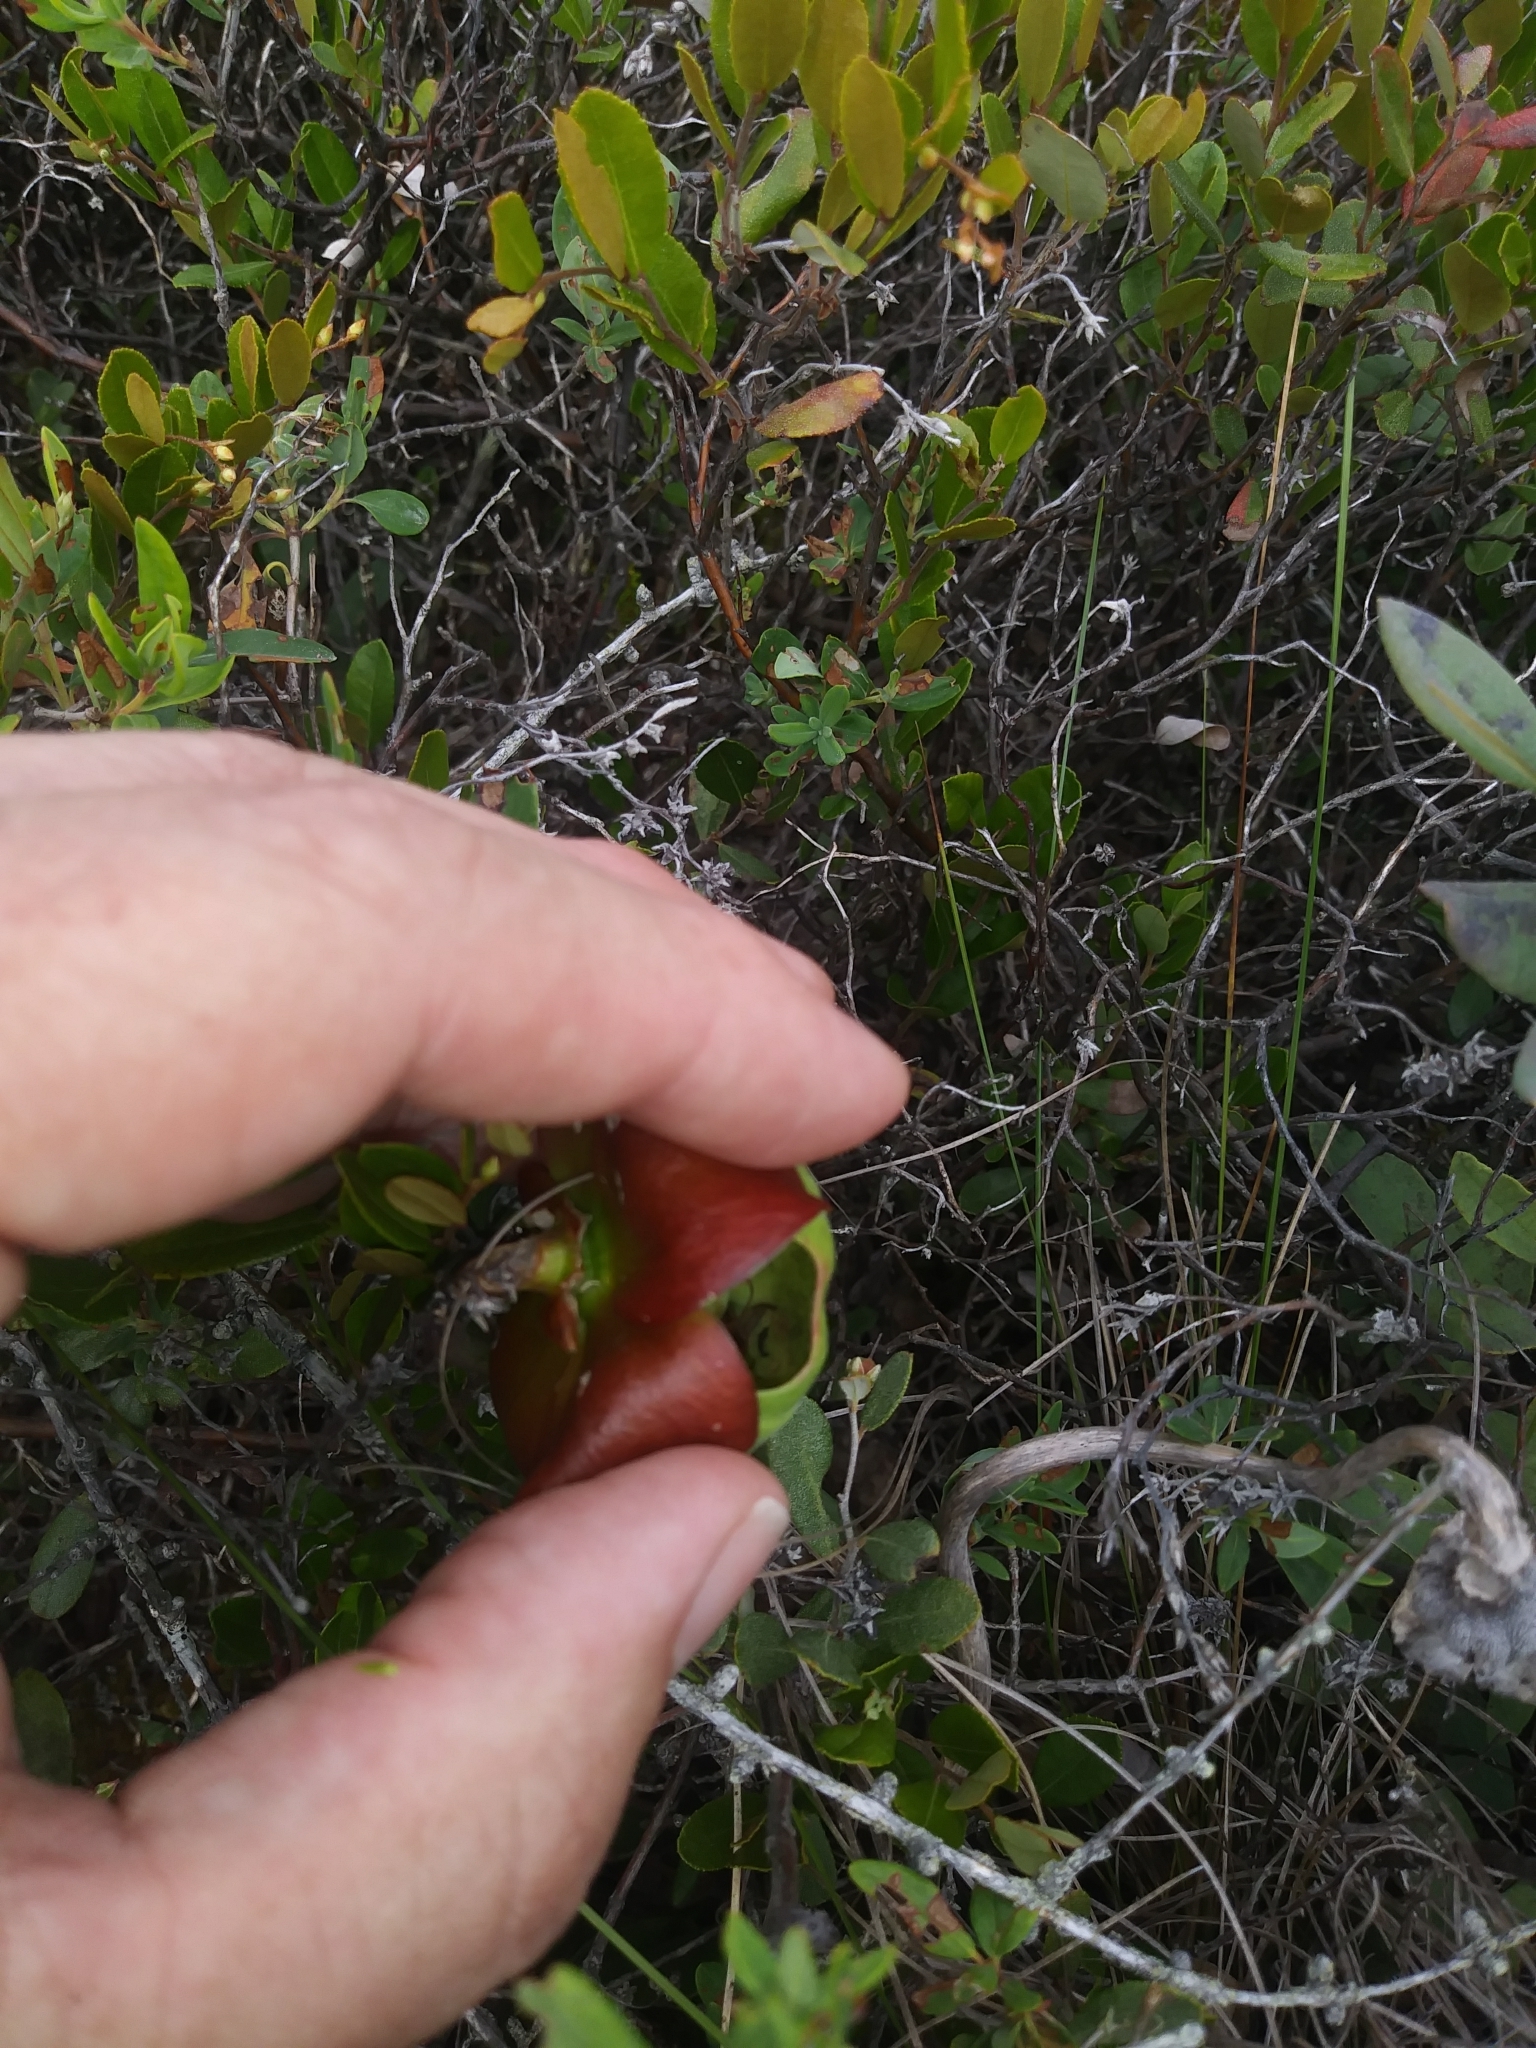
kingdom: Plantae
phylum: Tracheophyta
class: Magnoliopsida
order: Ericales
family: Sarraceniaceae
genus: Sarracenia
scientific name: Sarracenia purpurea
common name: Pitcherplant
